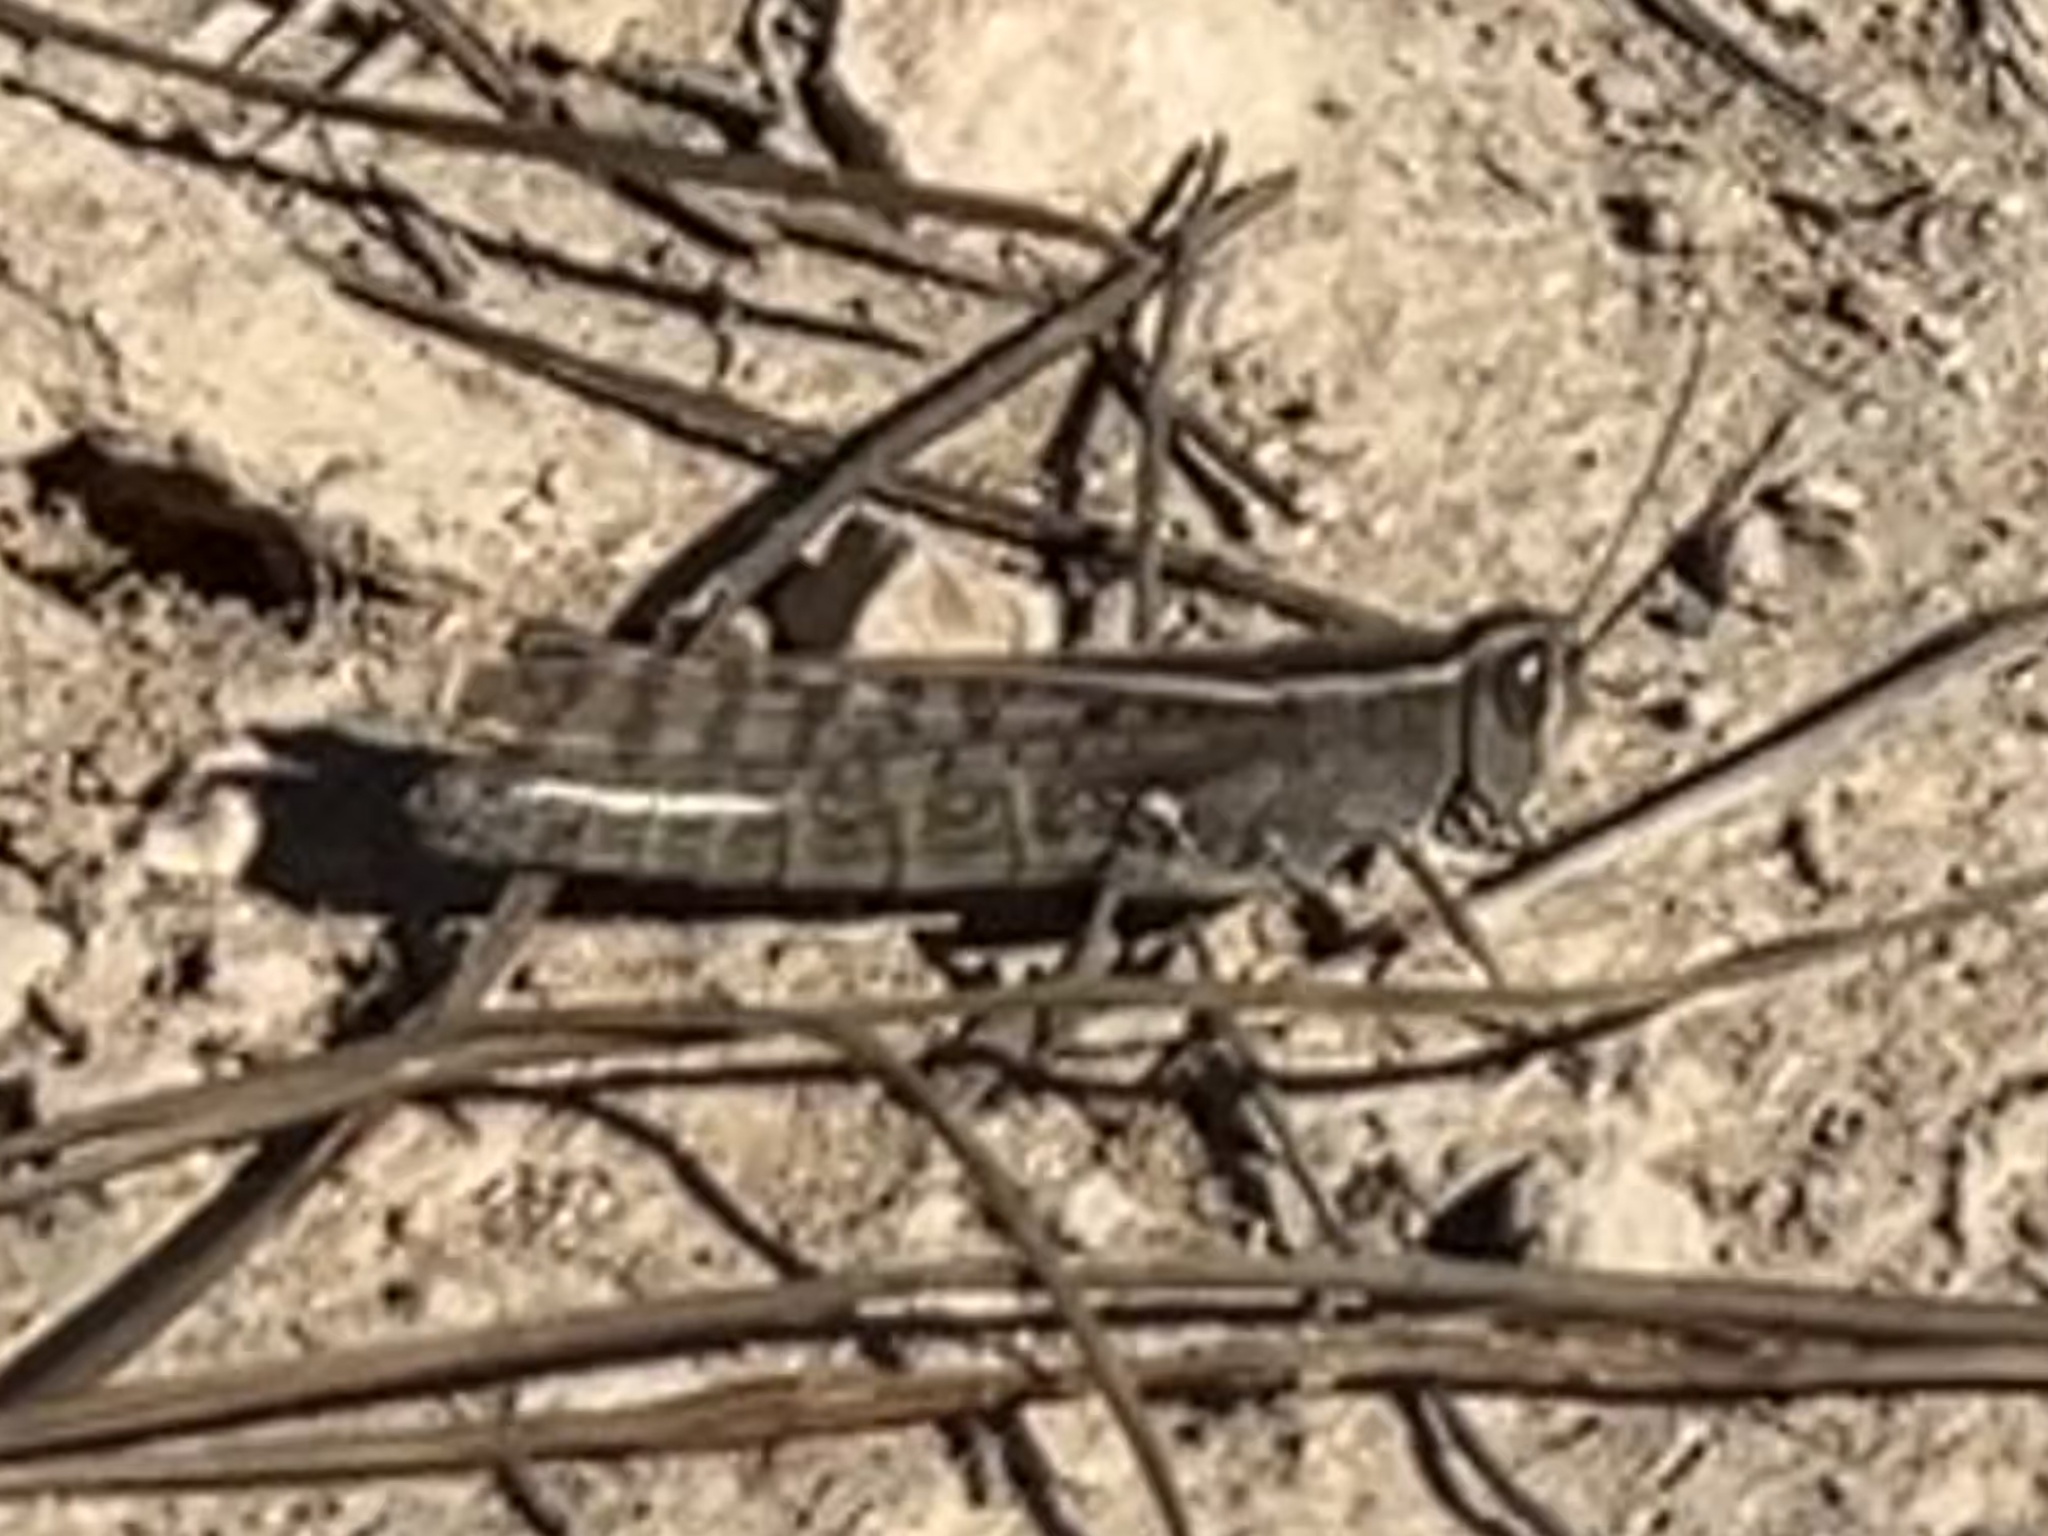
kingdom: Animalia
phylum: Arthropoda
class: Insecta
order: Orthoptera
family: Acrididae
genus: Heteracris
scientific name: Heteracris littoralis
